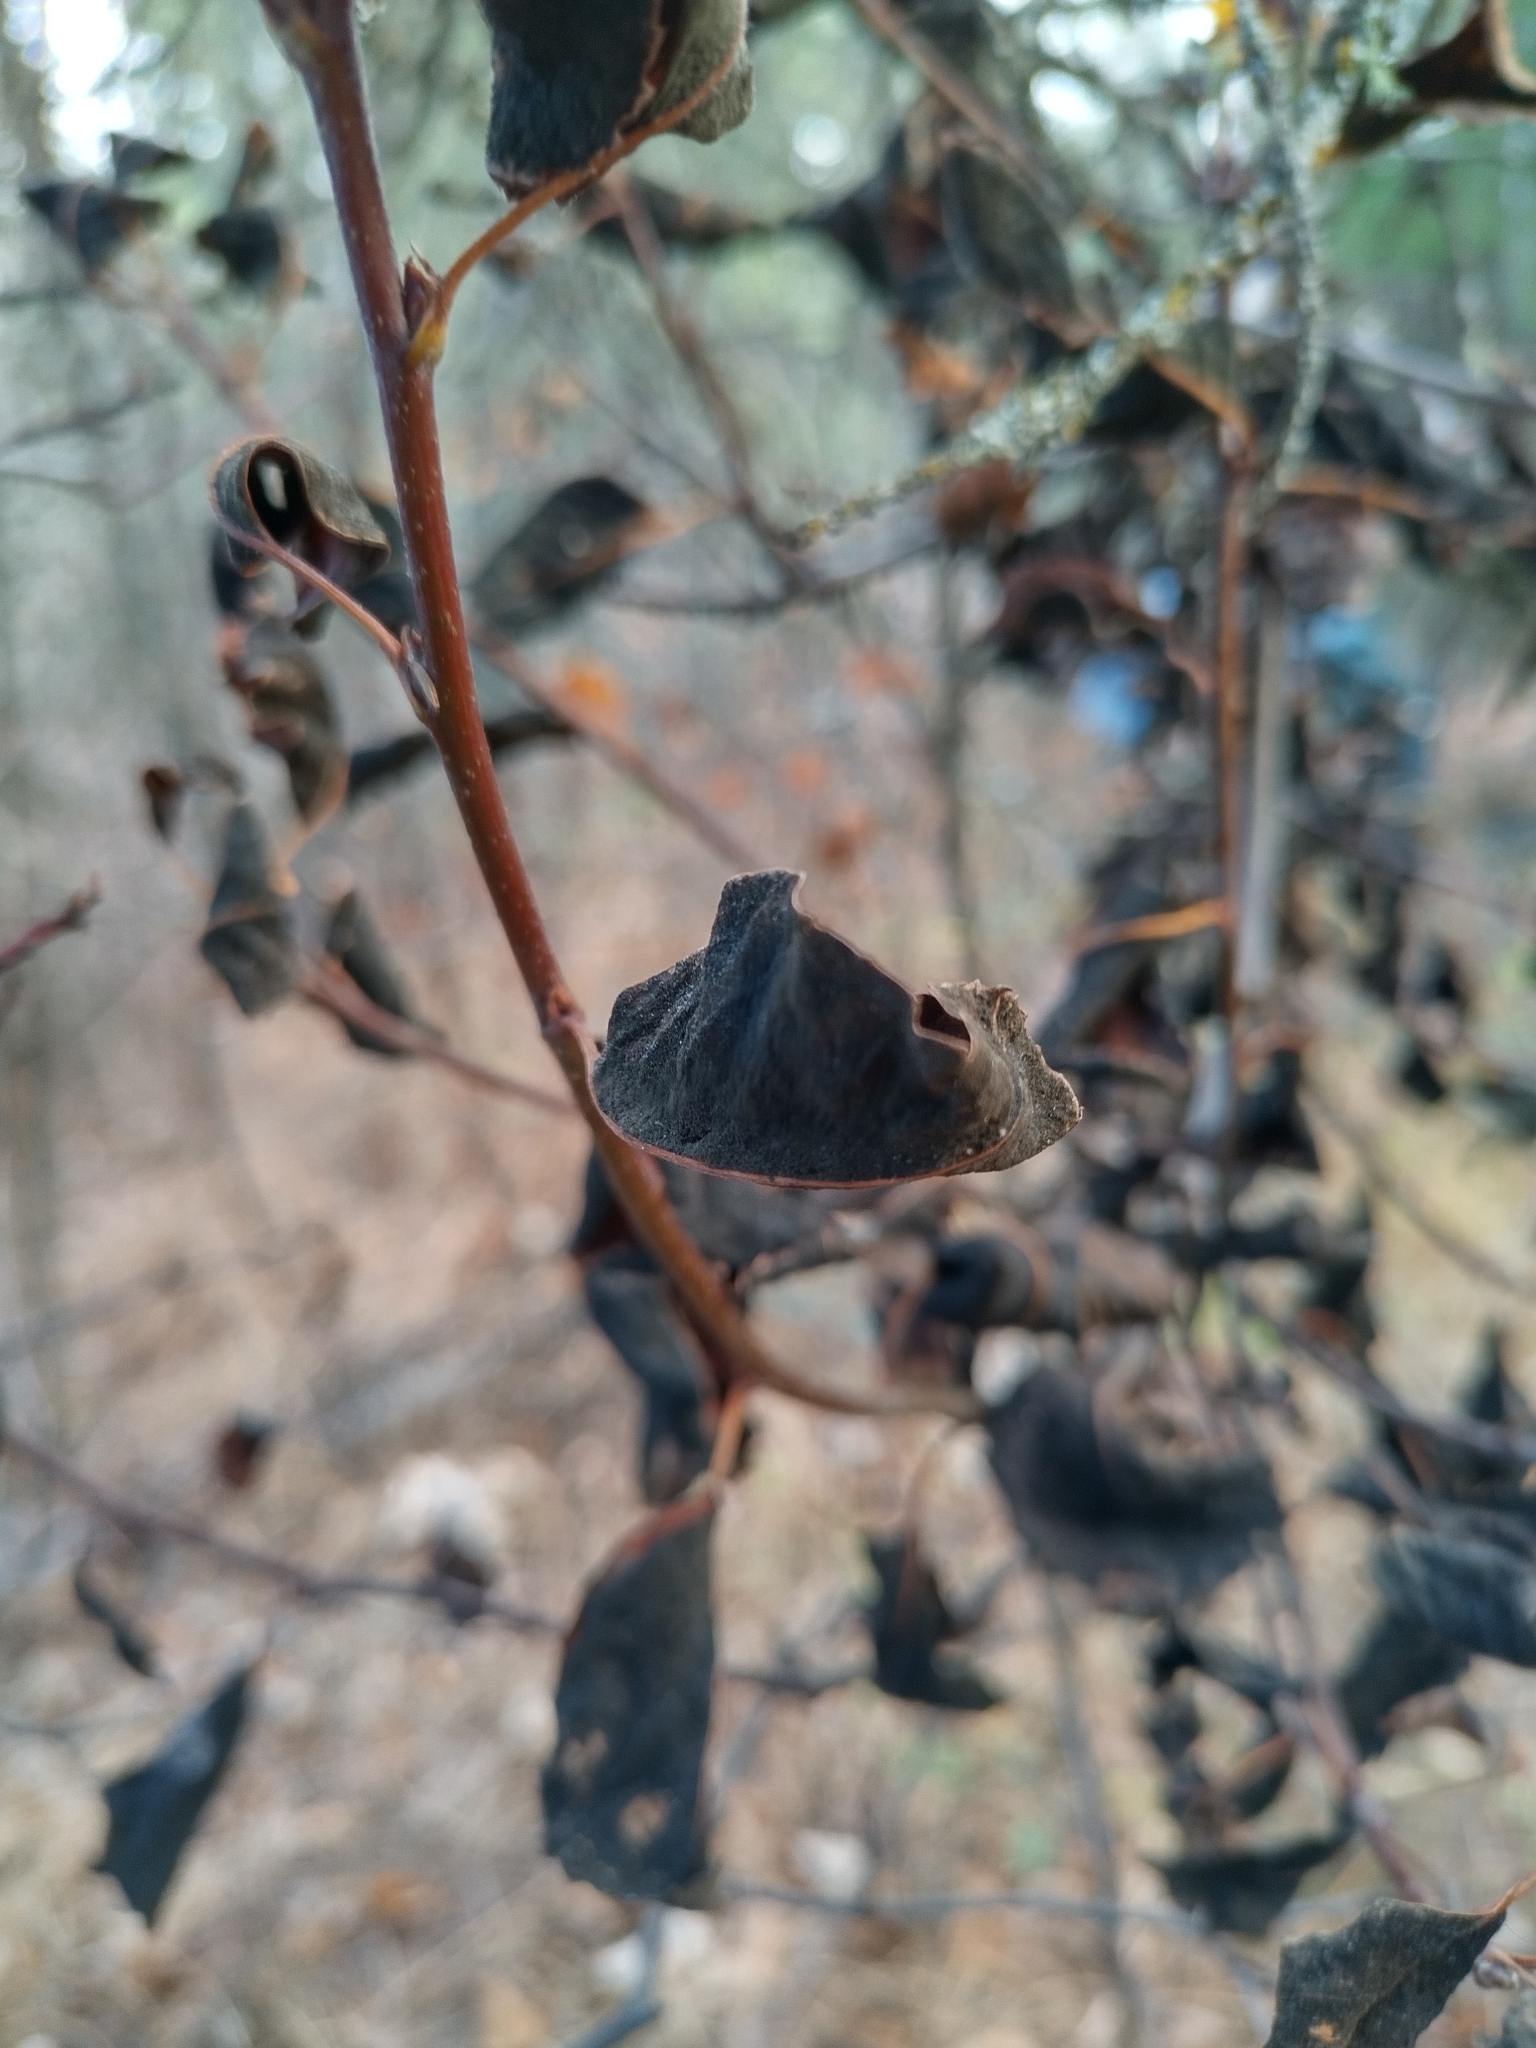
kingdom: Fungi
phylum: Ascomycota
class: Dothideomycetes
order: Venturiales
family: Venturiaceae
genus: Apiosporina
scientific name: Apiosporina morbosa
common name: Black knot
